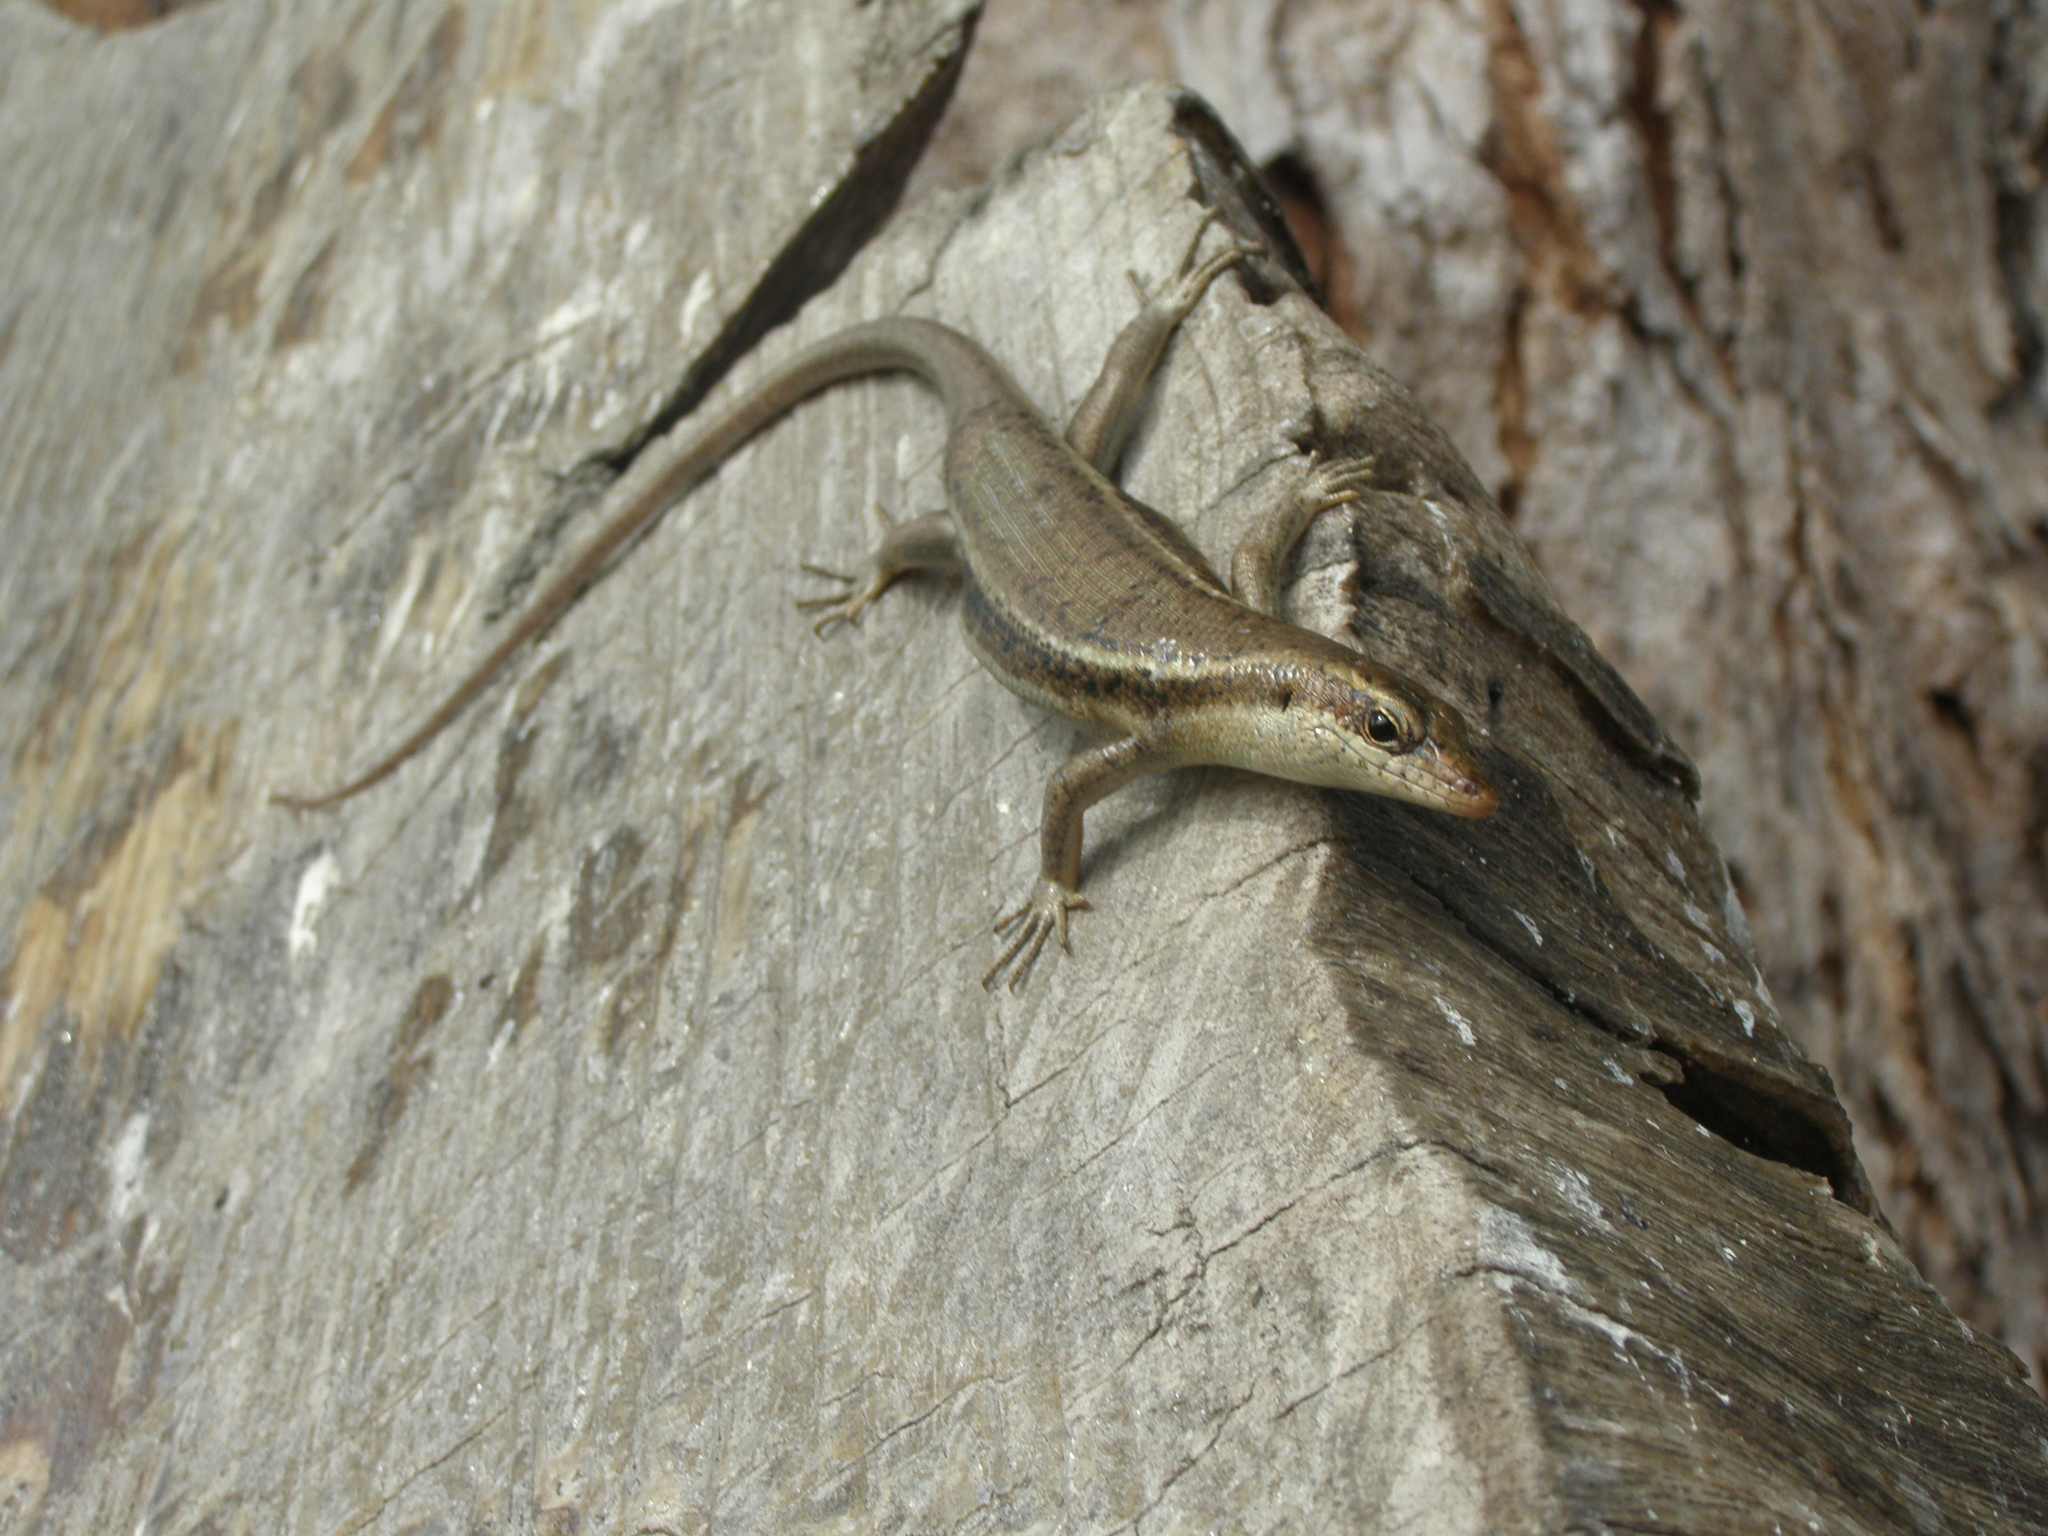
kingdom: Animalia
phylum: Chordata
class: Squamata
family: Scincidae
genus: Trachylepis
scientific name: Trachylepis sechellensis
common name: Seychelles skink
